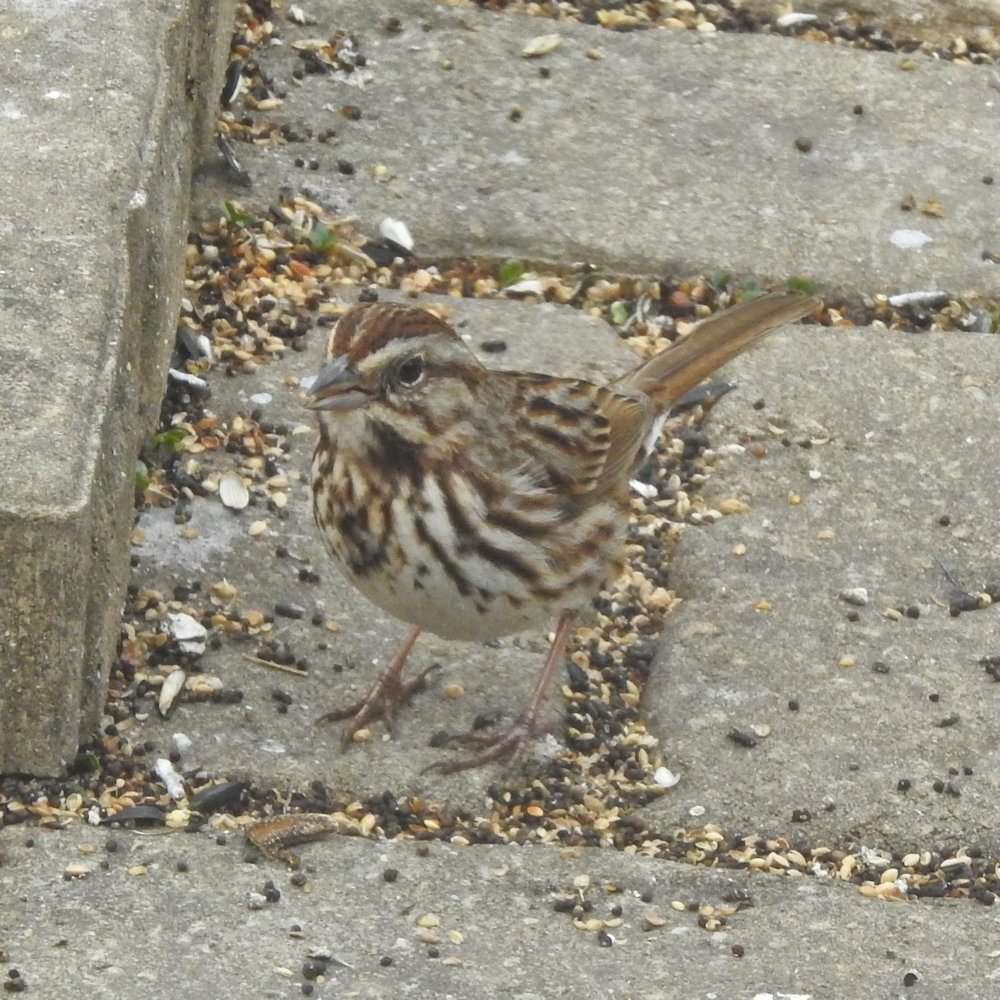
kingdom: Animalia
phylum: Chordata
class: Aves
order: Passeriformes
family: Passerellidae
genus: Melospiza
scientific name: Melospiza melodia
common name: Song sparrow
